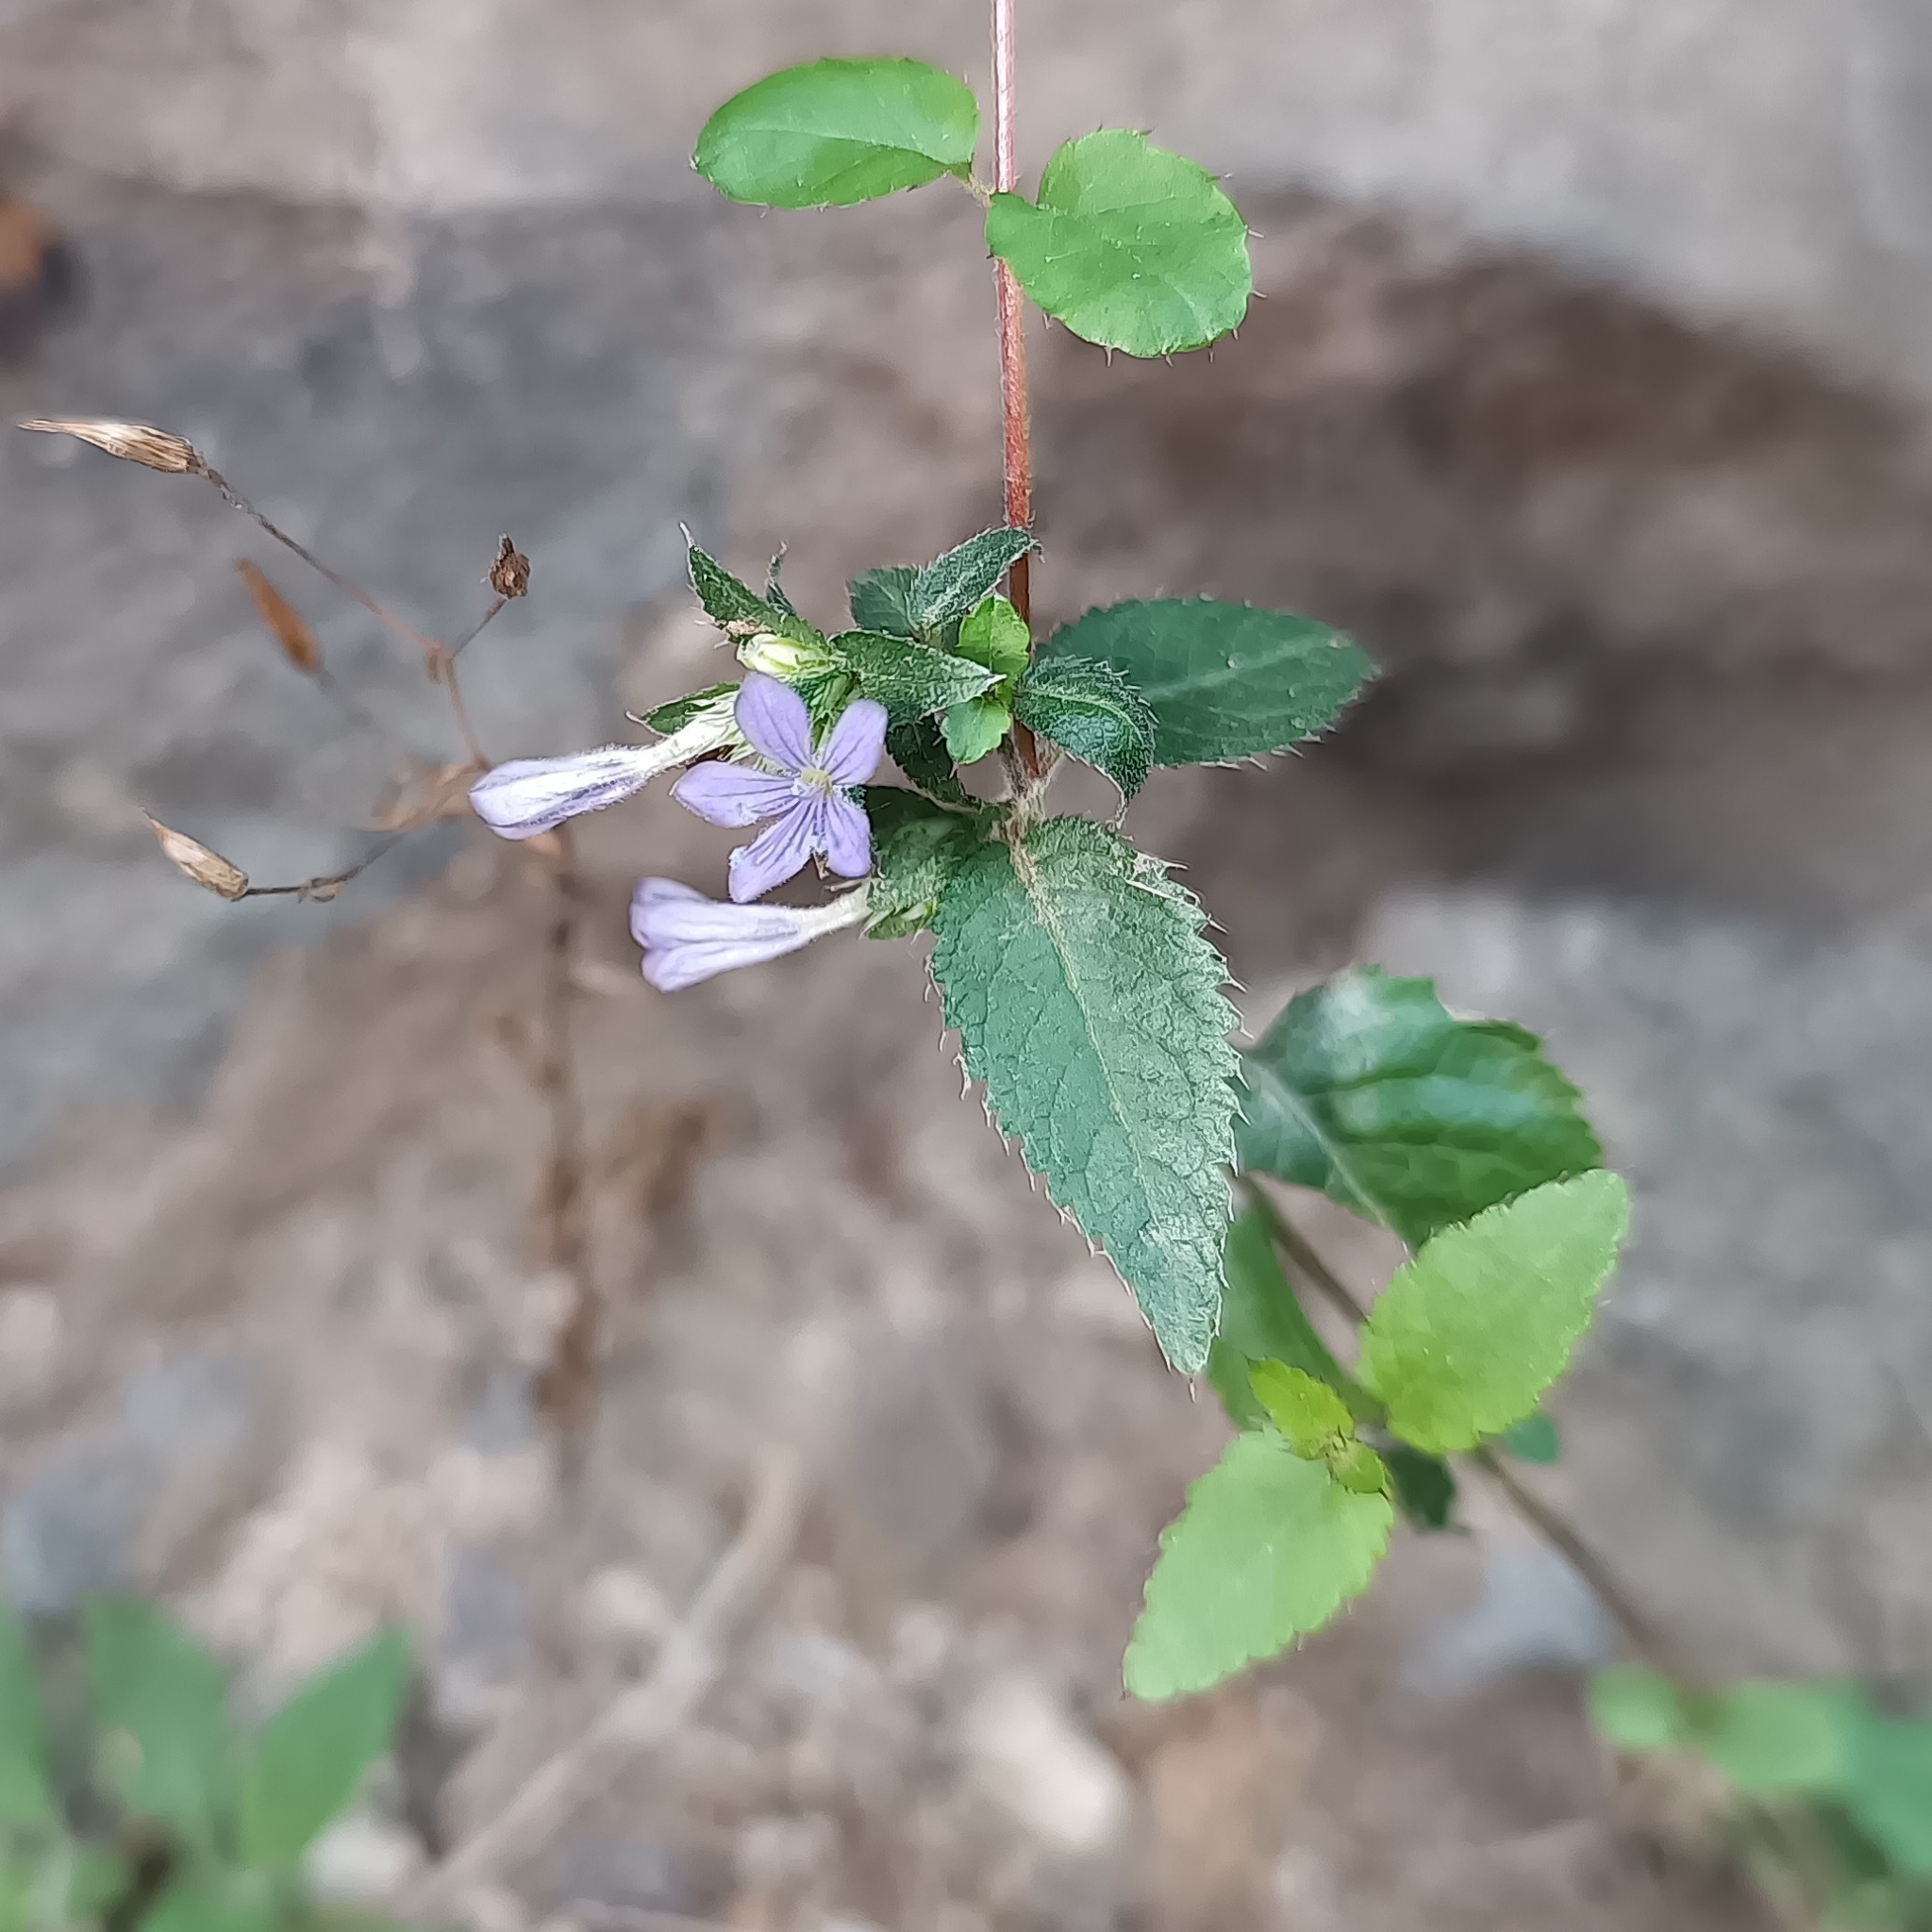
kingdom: Plantae
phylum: Tracheophyta
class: Magnoliopsida
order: Ericales
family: Polemoniaceae
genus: Loeselia
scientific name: Loeselia ciliata
